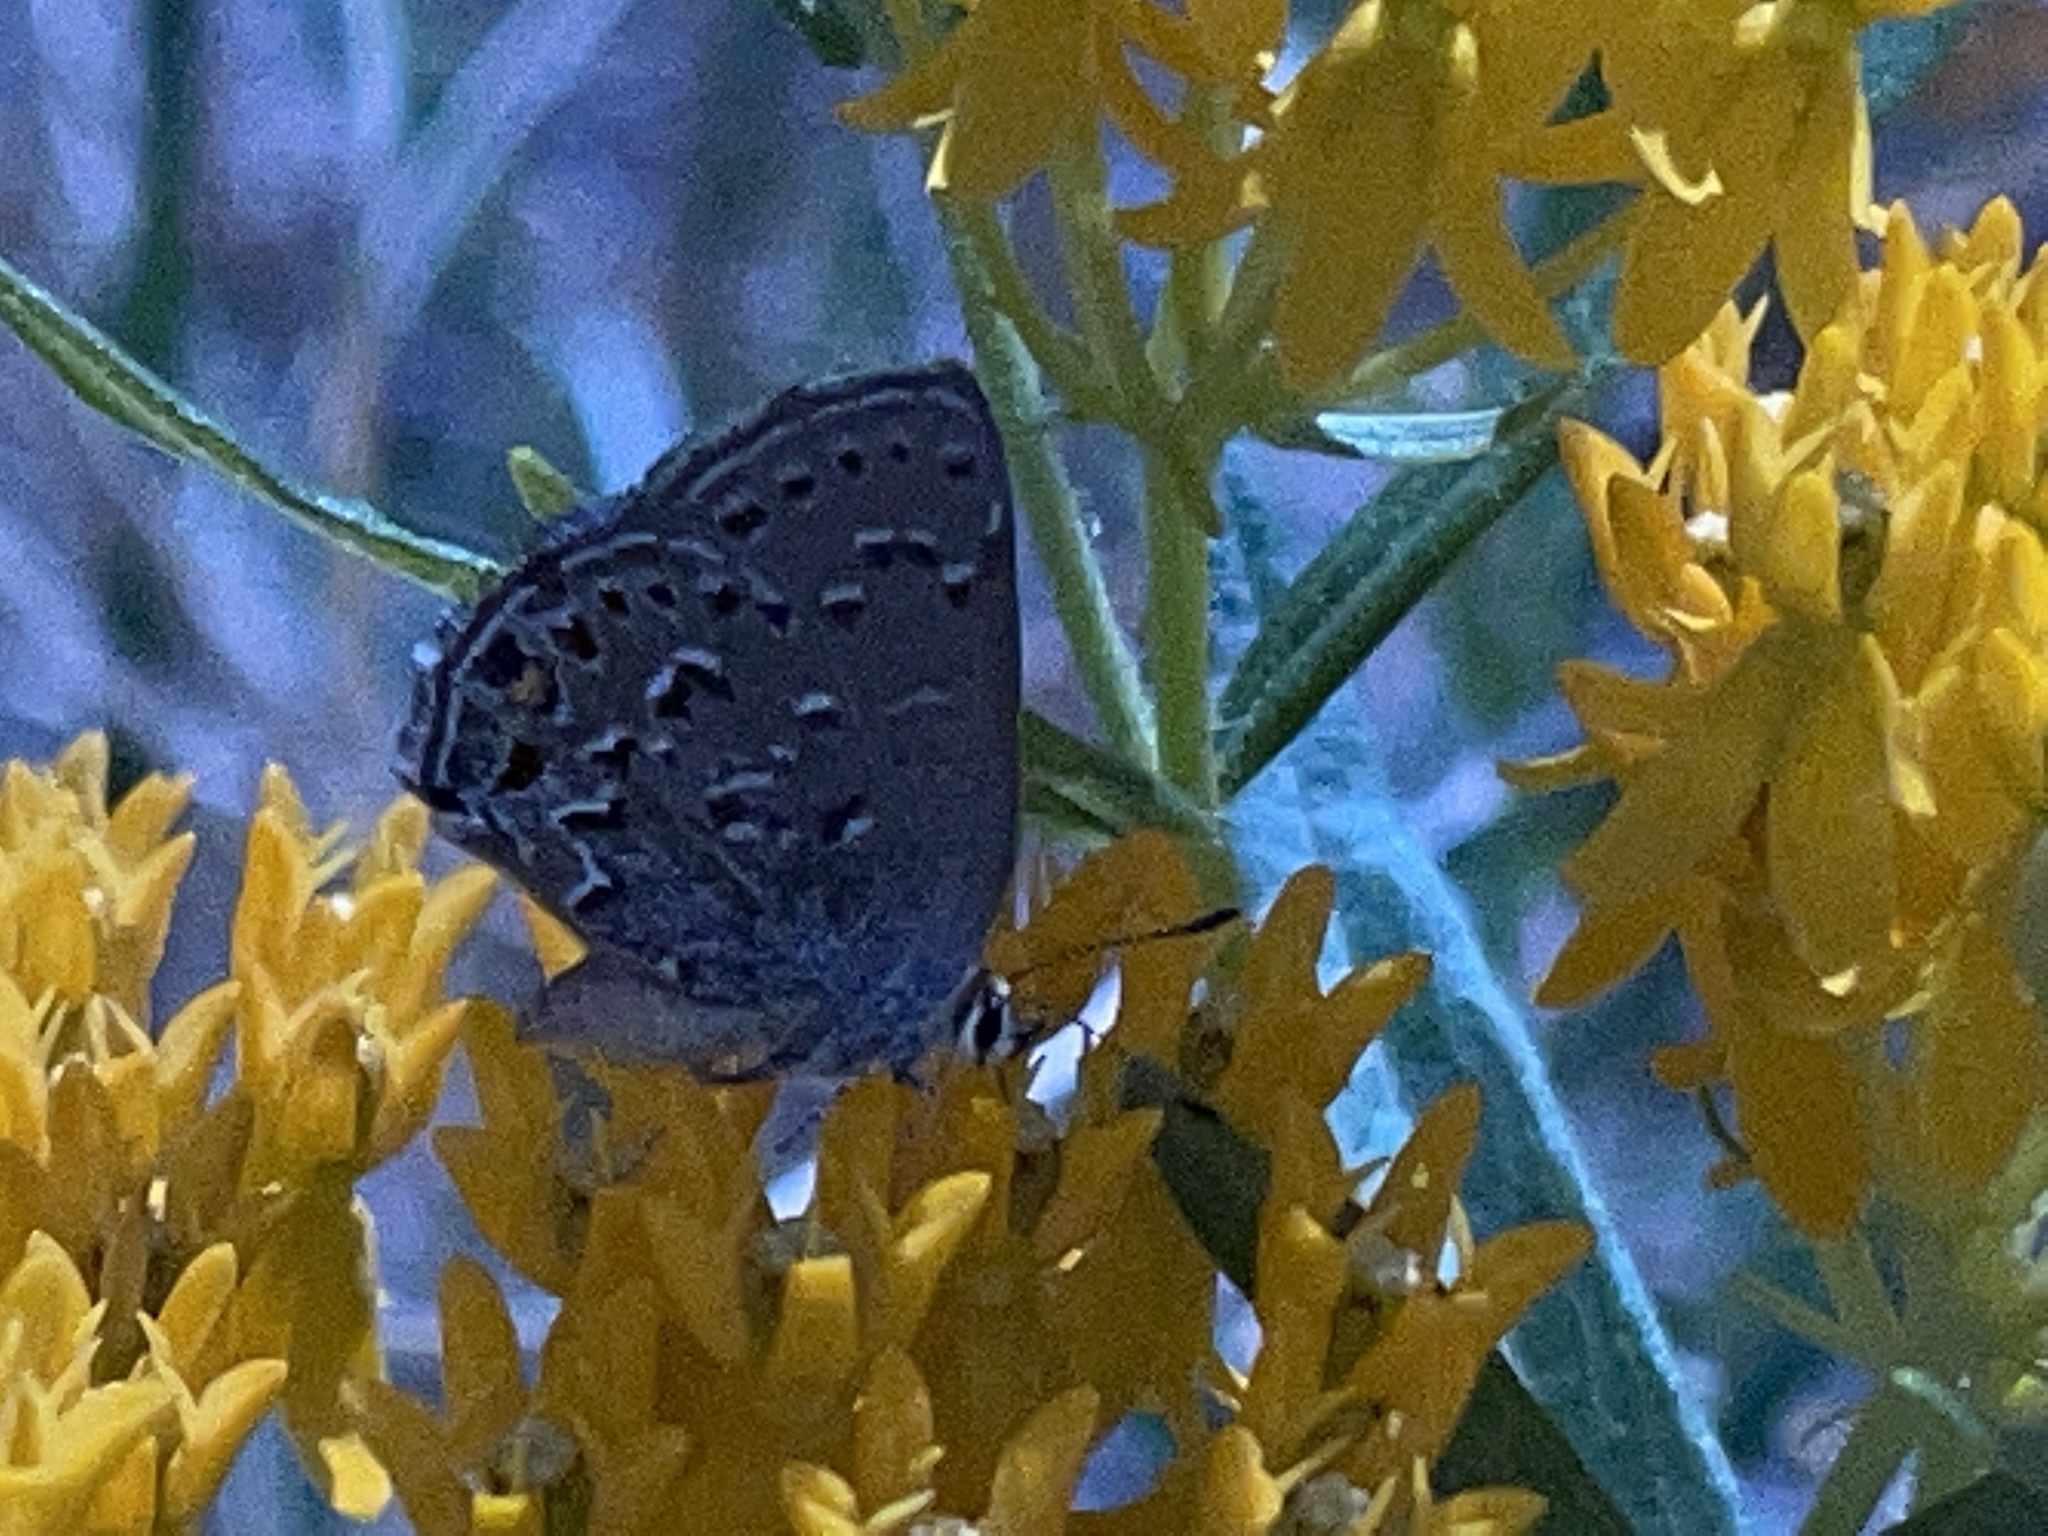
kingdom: Animalia
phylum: Arthropoda
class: Insecta
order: Lepidoptera
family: Lycaenidae
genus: Satyrium
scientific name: Satyrium behrii
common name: Behr's hairstreak
